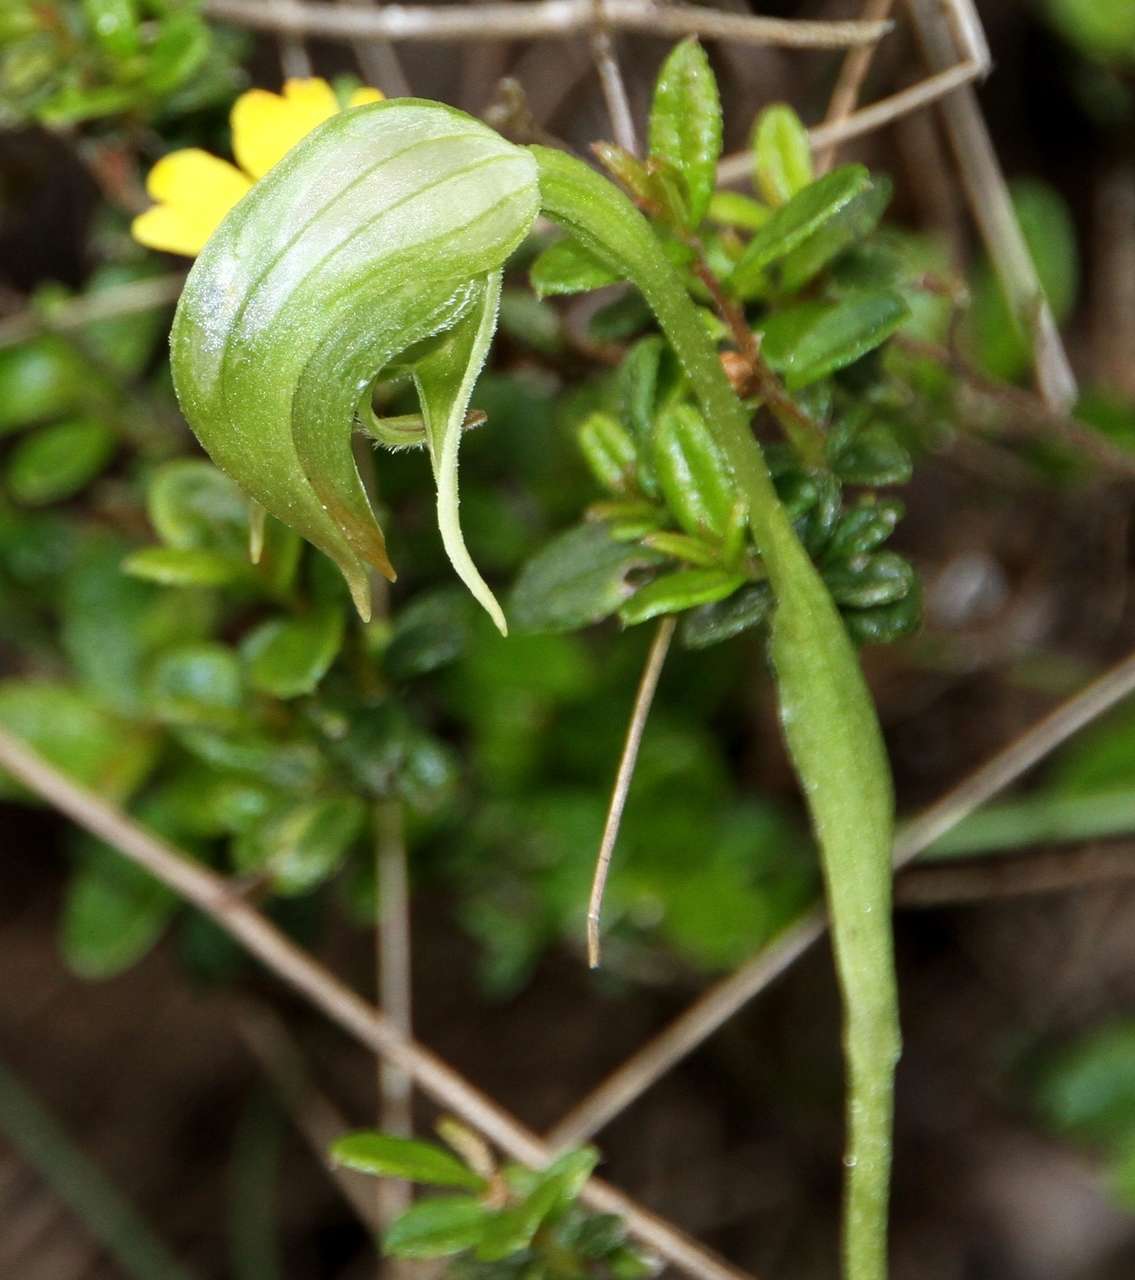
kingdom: Plantae
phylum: Tracheophyta
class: Liliopsida
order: Asparagales
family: Orchidaceae
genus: Pterostylis
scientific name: Pterostylis nutans
